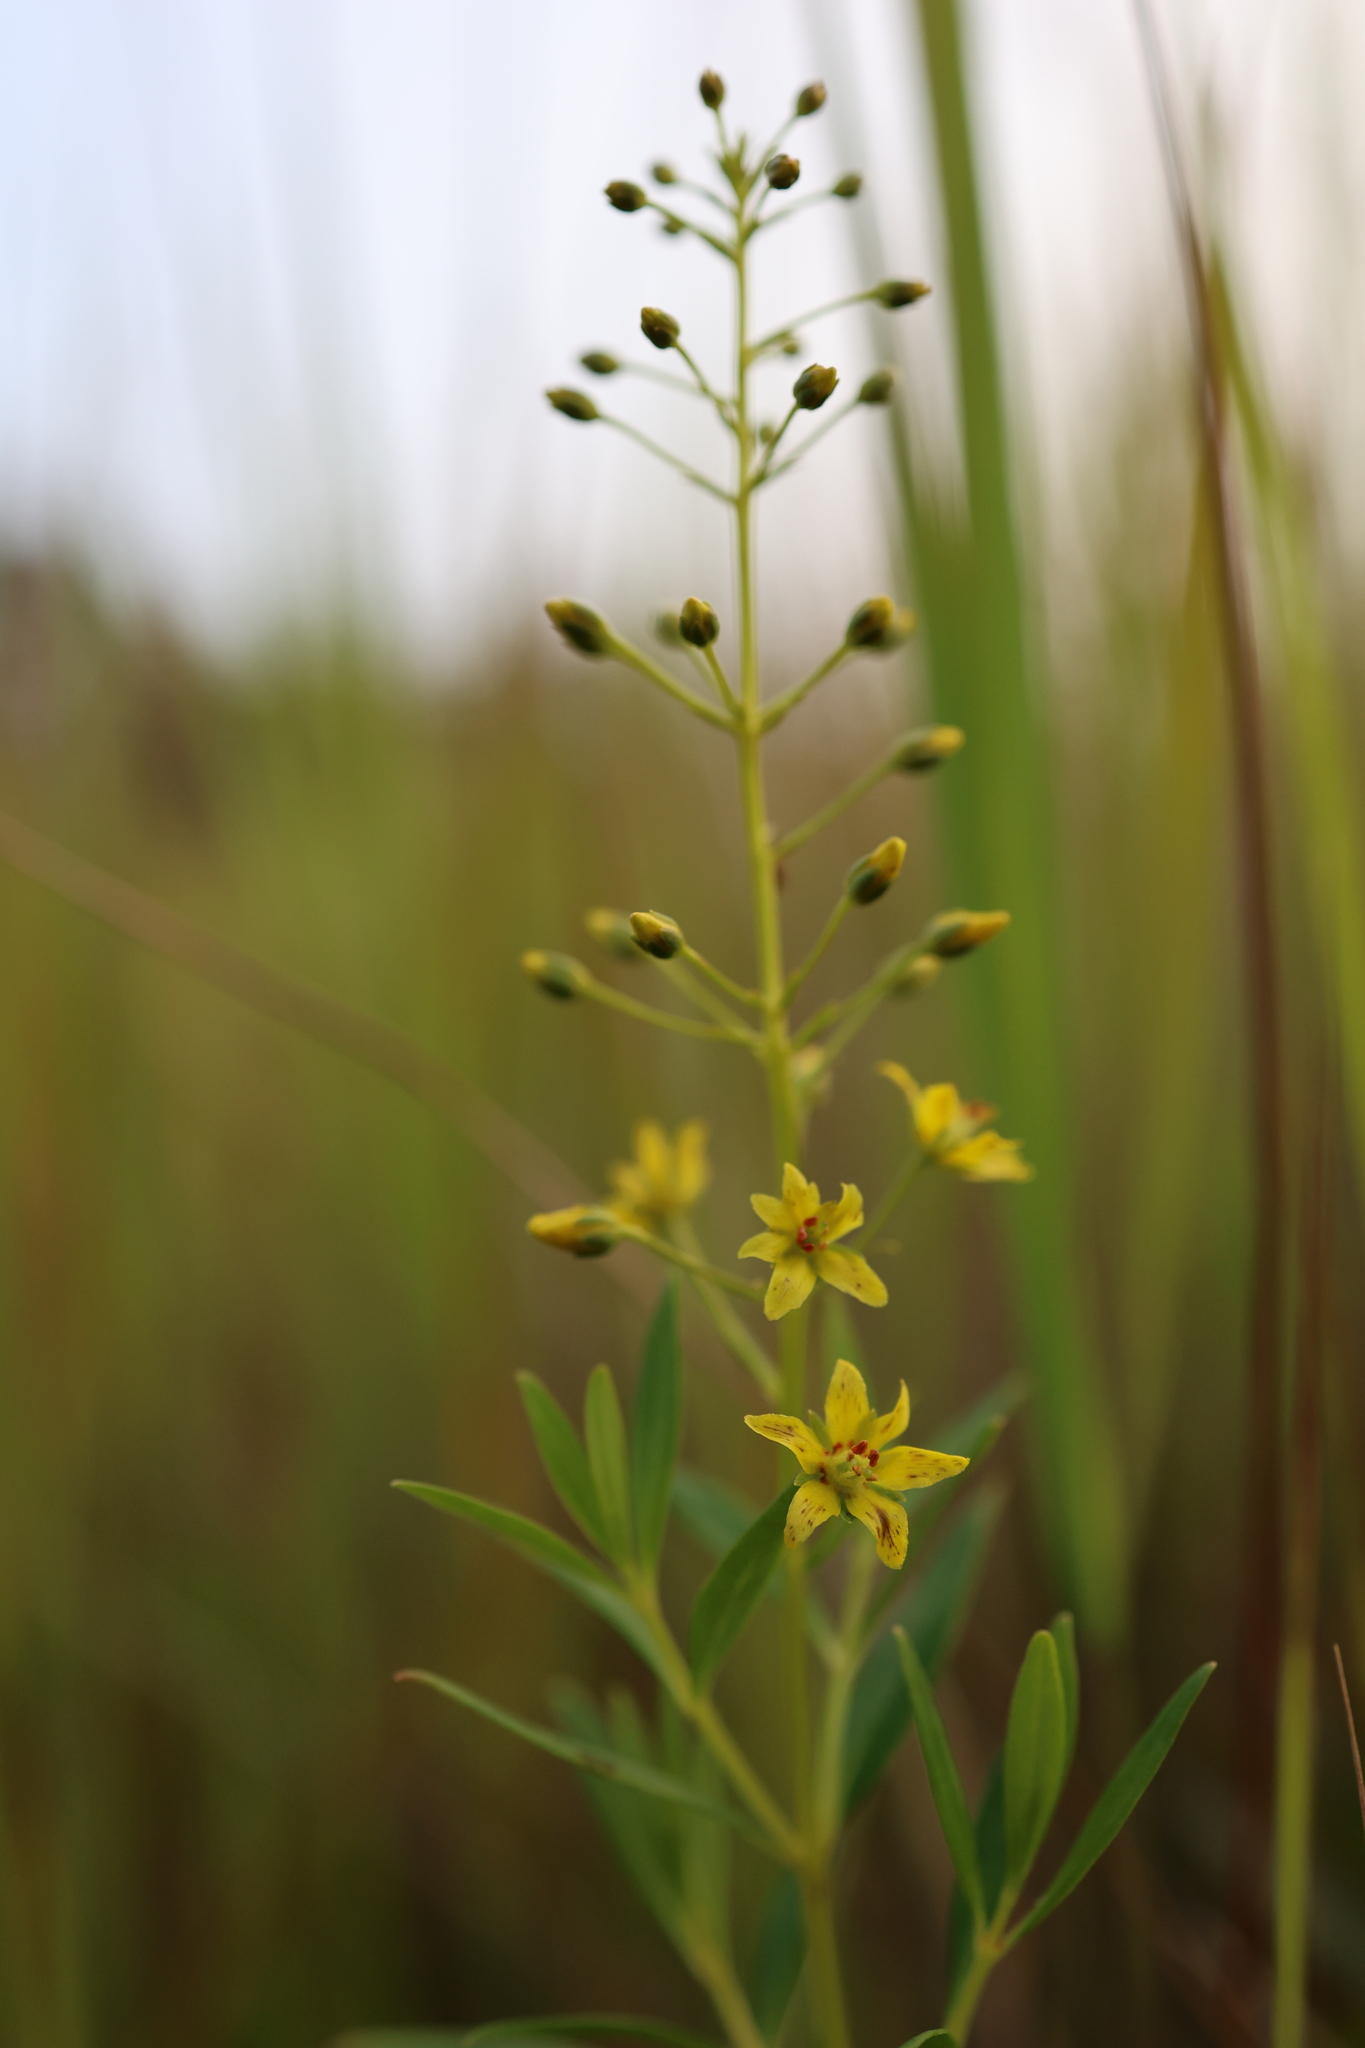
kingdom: Plantae
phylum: Tracheophyta
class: Magnoliopsida
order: Ericales
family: Primulaceae
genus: Lysimachia
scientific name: Lysimachia terrestris
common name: Lake loosestrife
